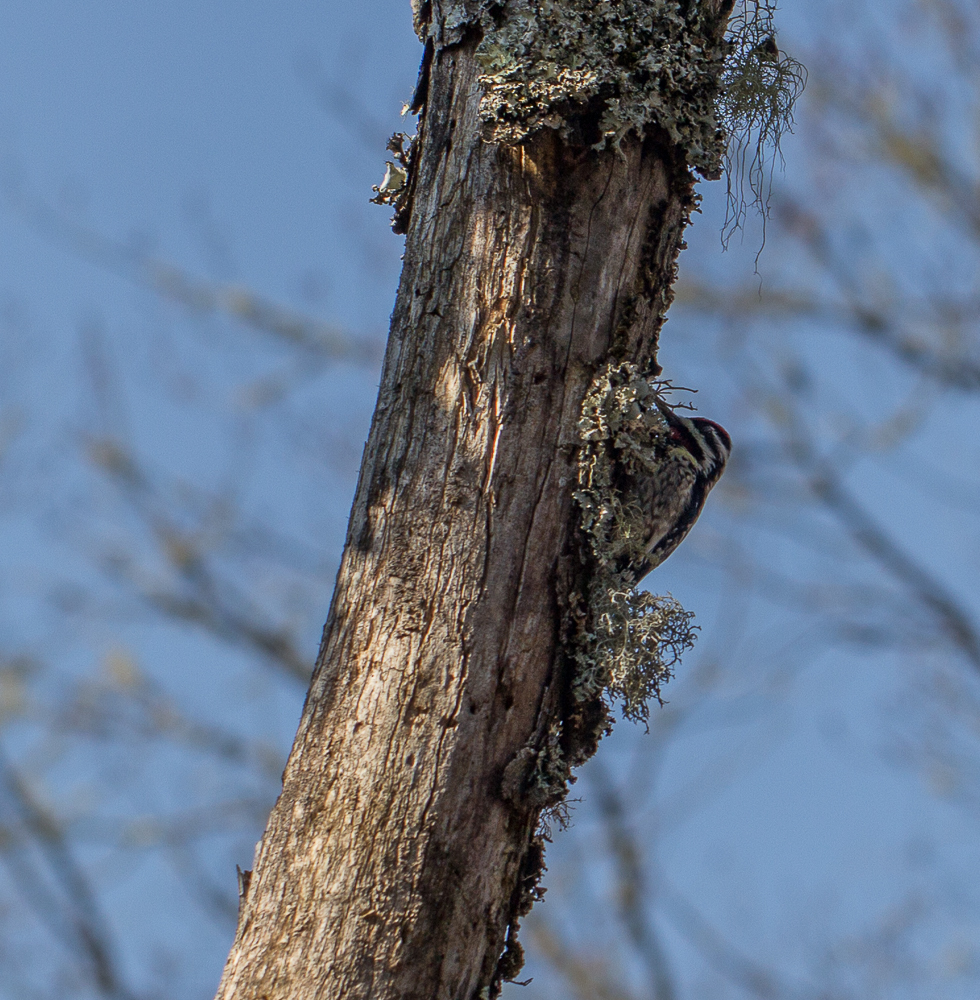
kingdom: Animalia
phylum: Chordata
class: Aves
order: Piciformes
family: Picidae
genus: Sphyrapicus
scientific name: Sphyrapicus varius
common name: Yellow-bellied sapsucker
